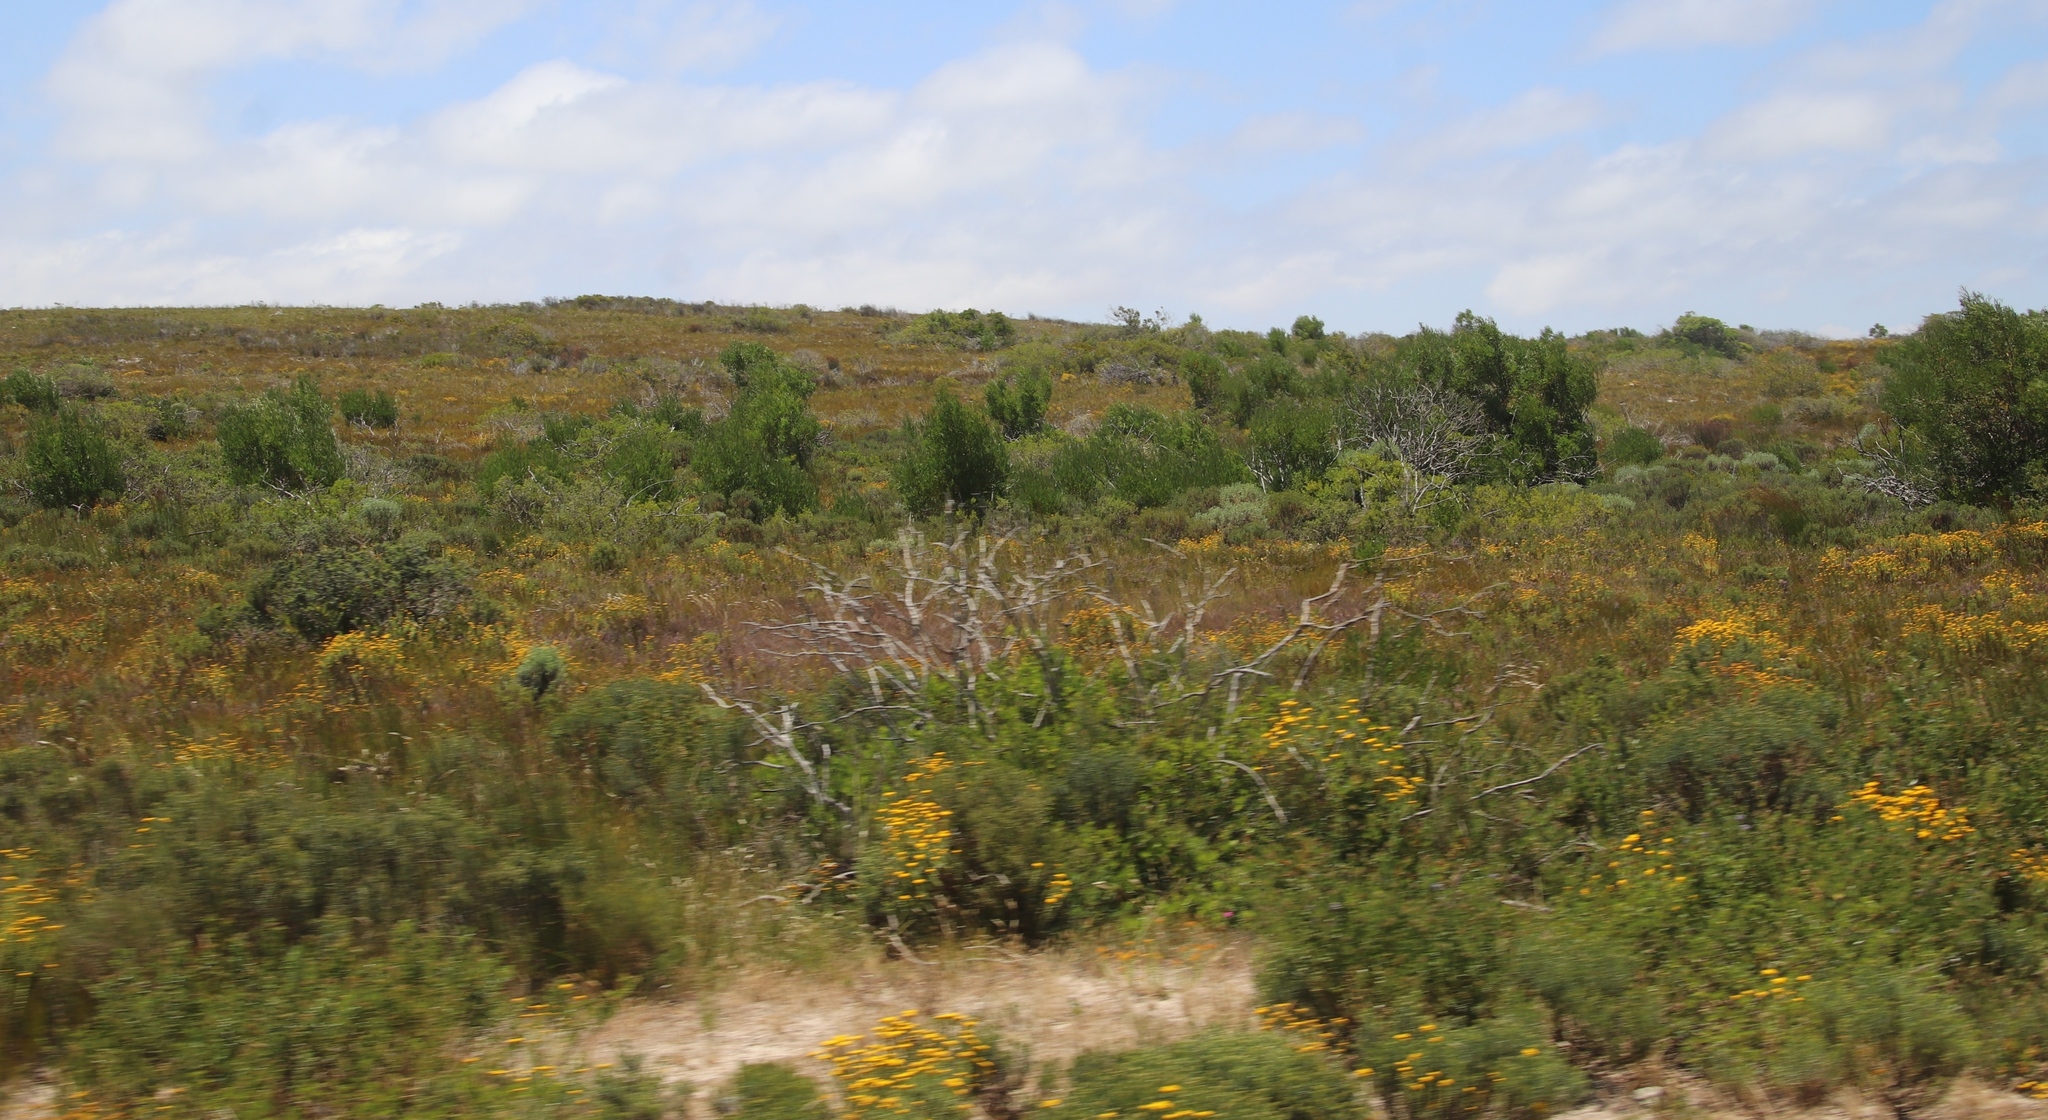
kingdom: Plantae
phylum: Tracheophyta
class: Magnoliopsida
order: Fabales
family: Fabaceae
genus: Acacia
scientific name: Acacia cyclops
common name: Coastal wattle
